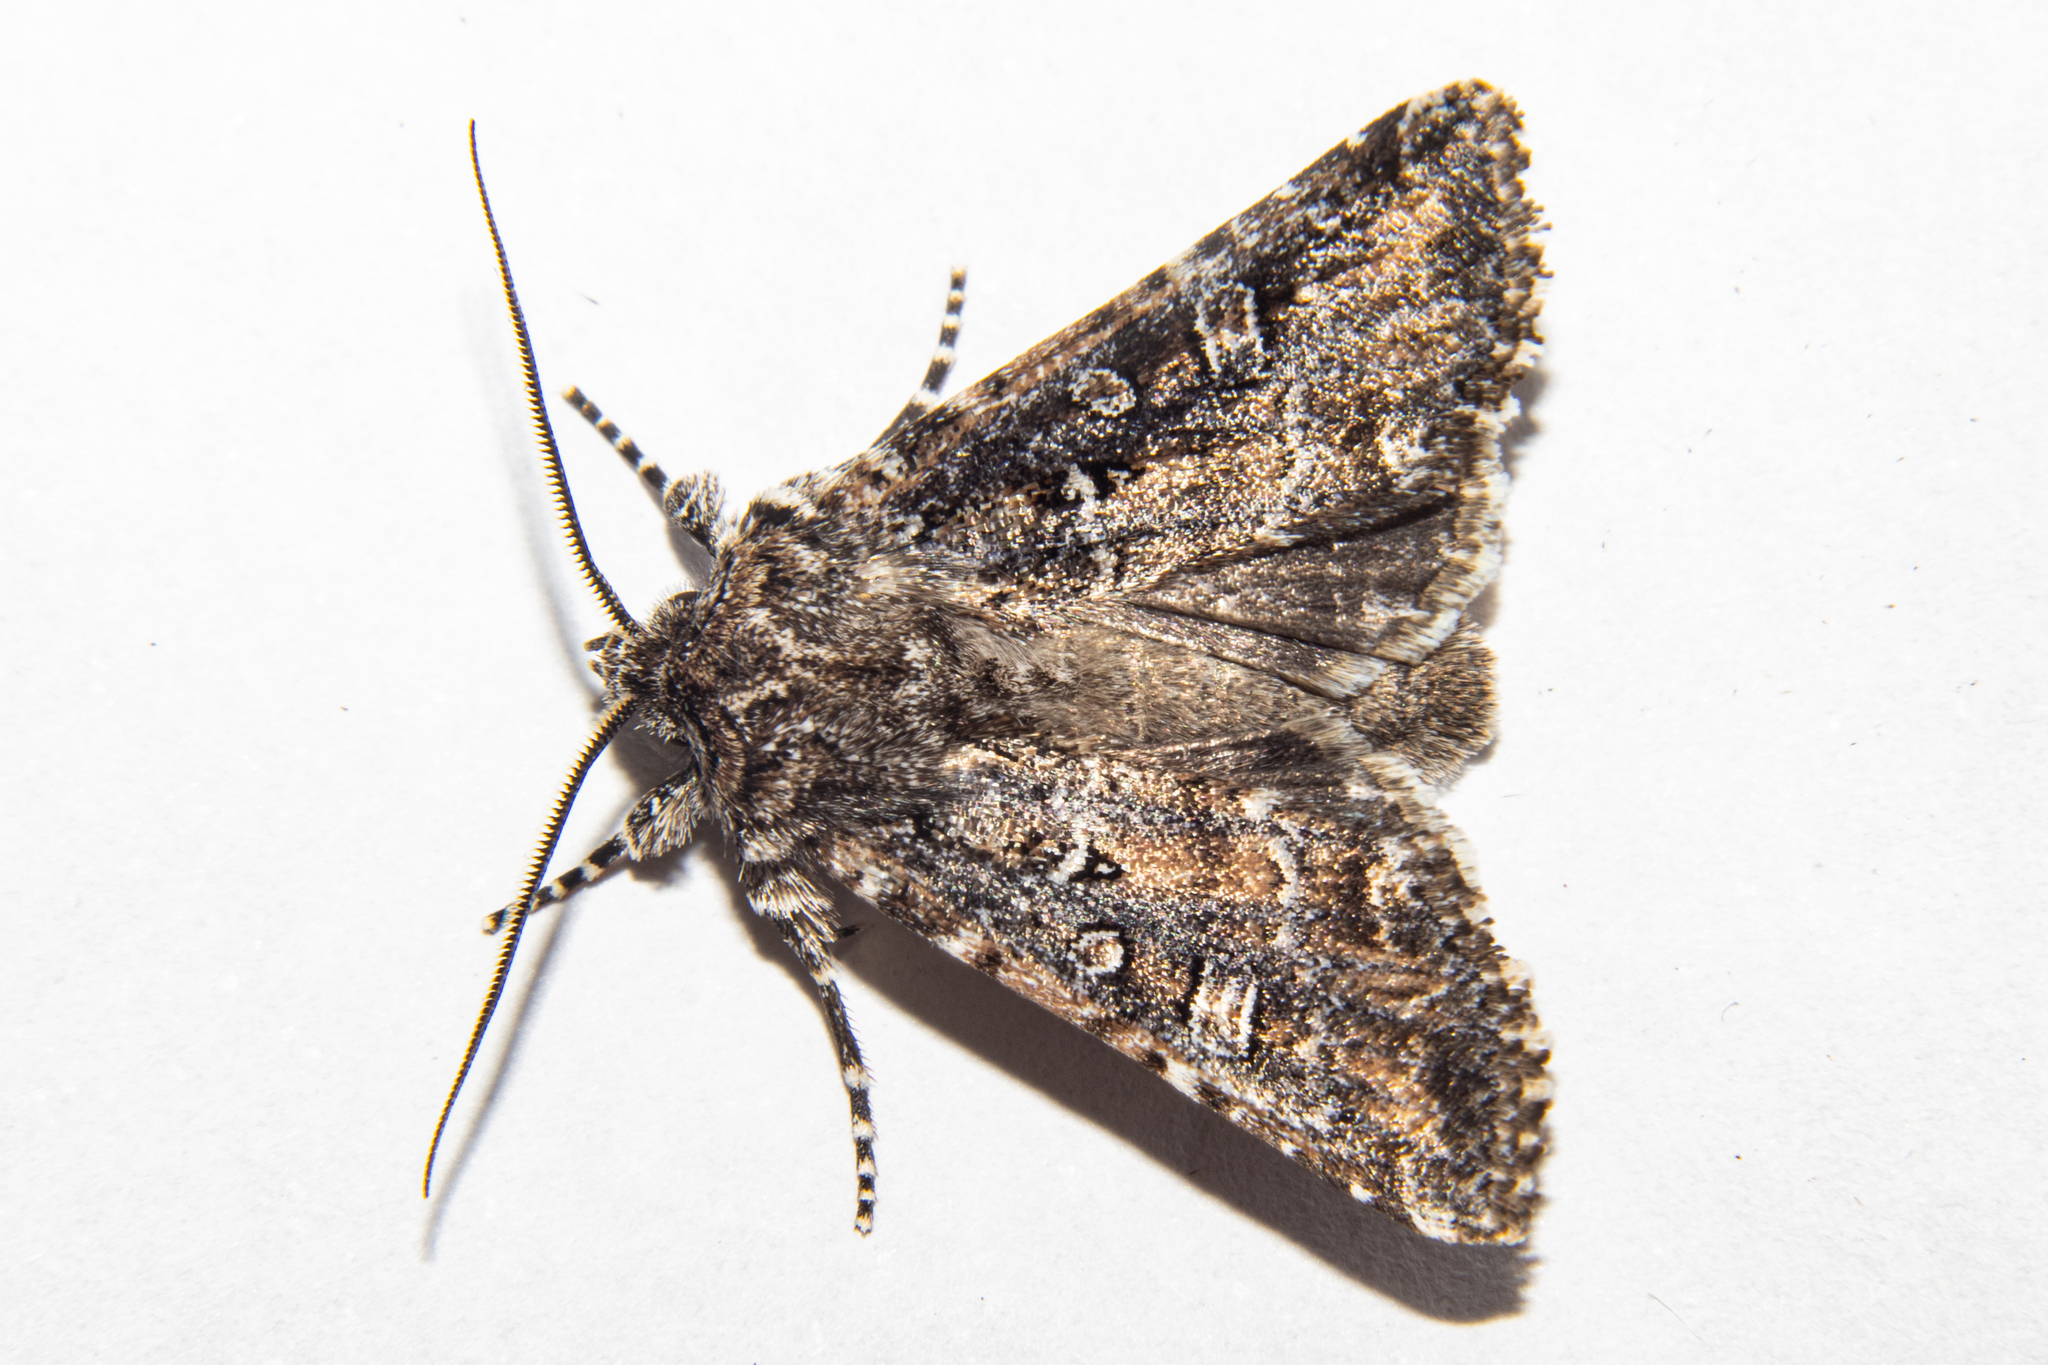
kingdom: Animalia
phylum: Arthropoda
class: Insecta
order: Lepidoptera
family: Noctuidae
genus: Ichneutica
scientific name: Ichneutica lithias
